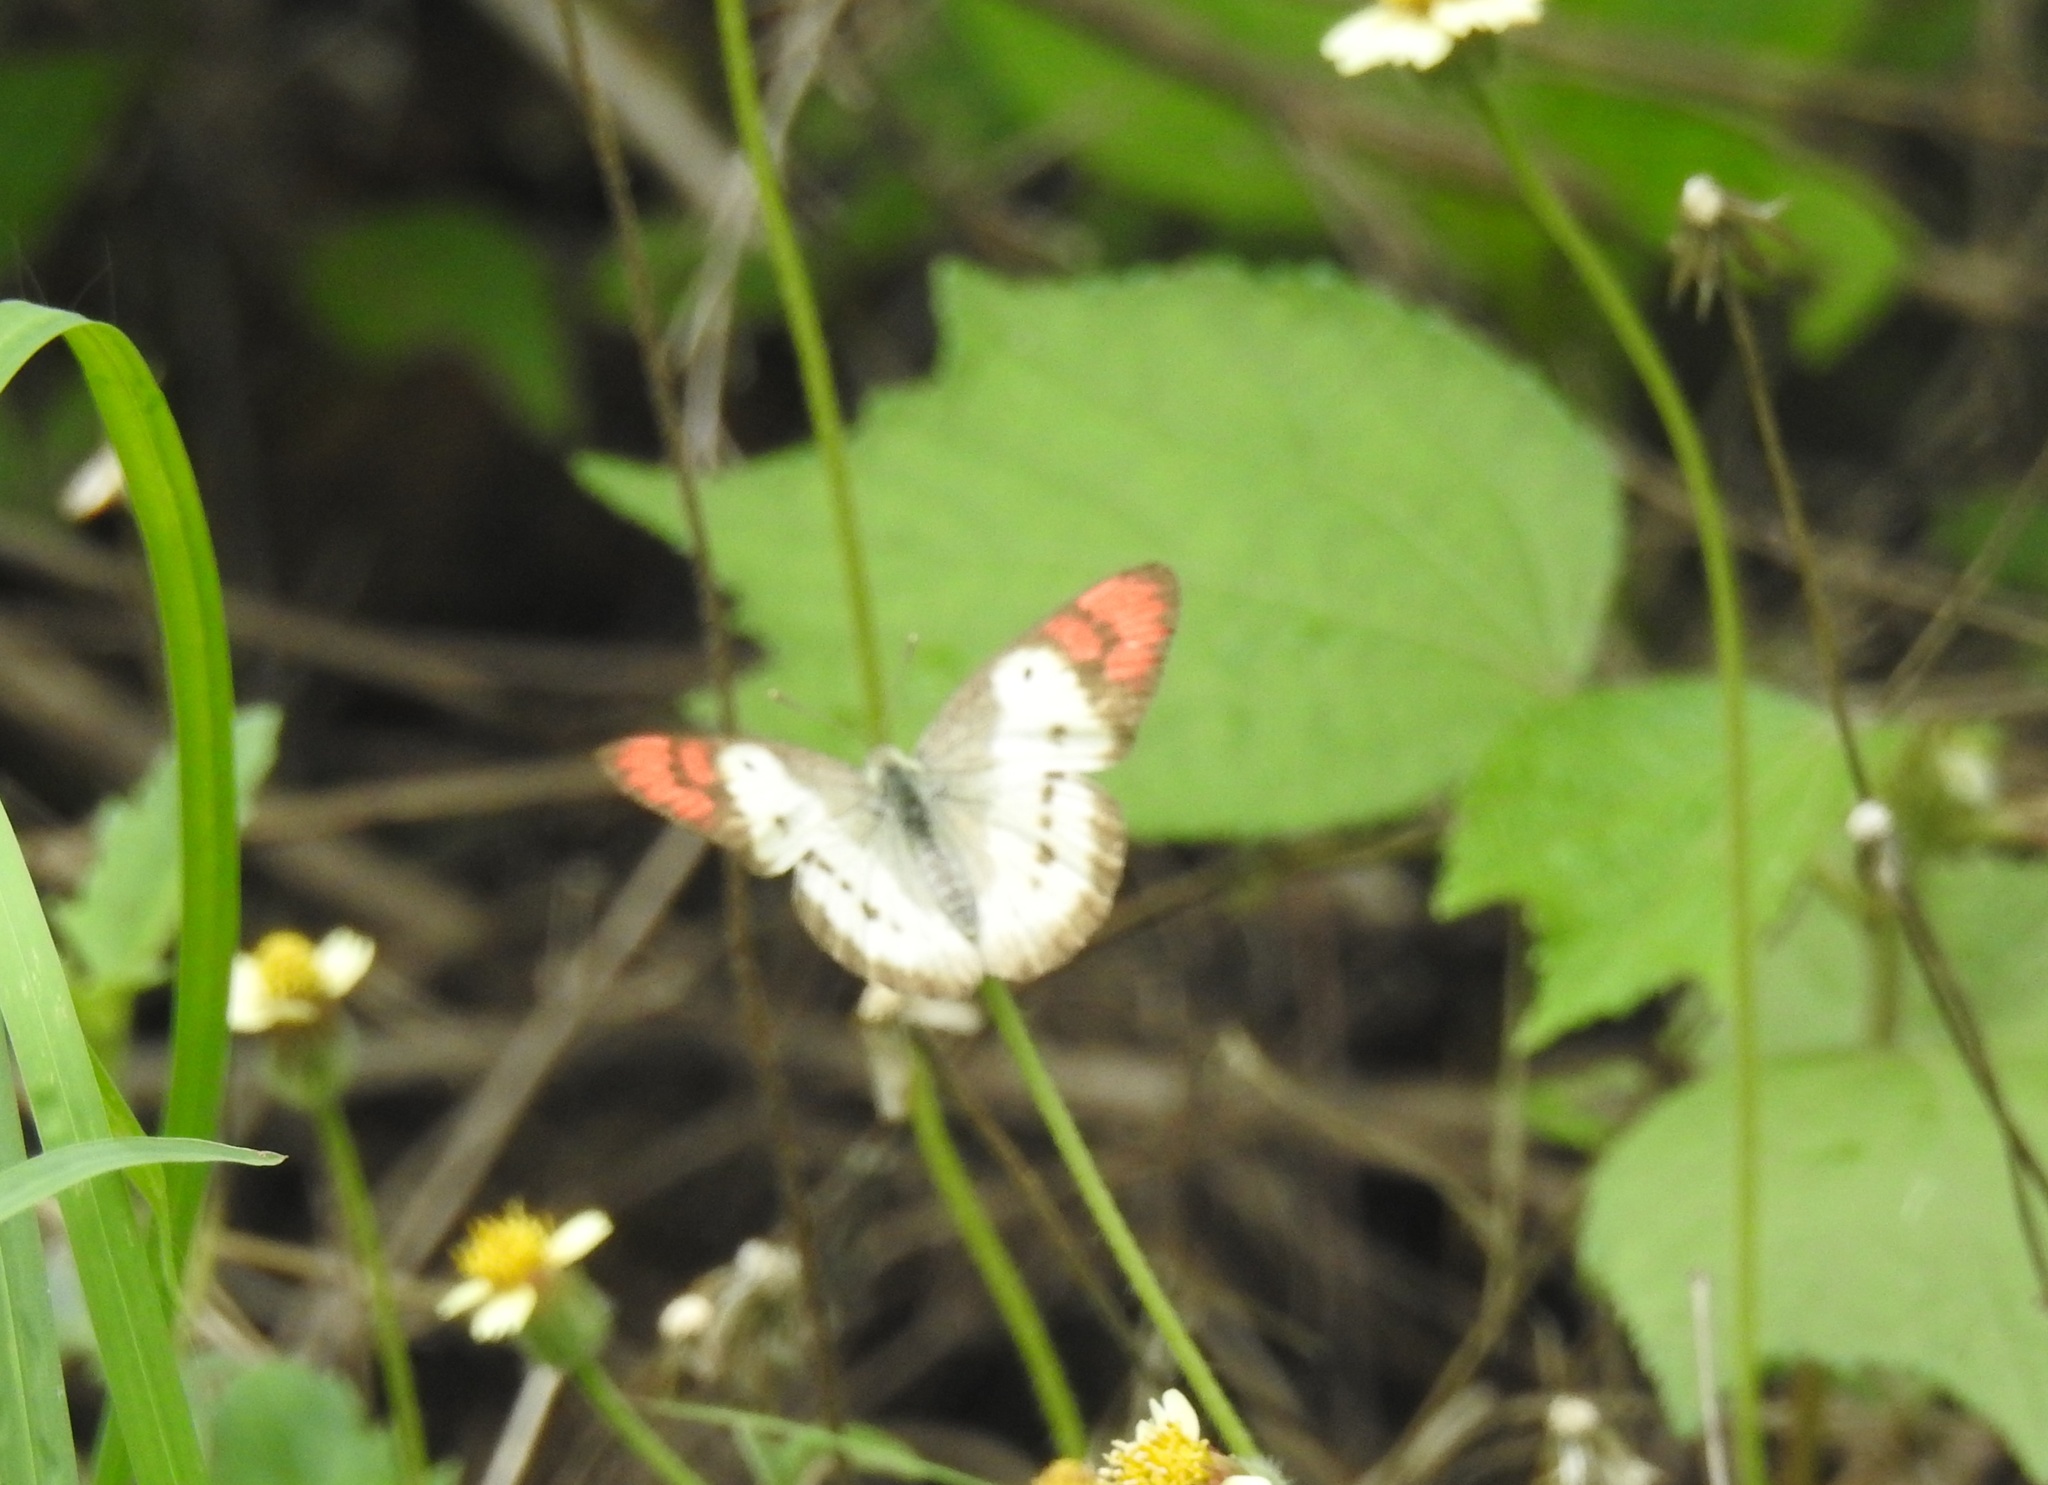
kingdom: Animalia
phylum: Arthropoda
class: Insecta
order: Lepidoptera
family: Pieridae
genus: Colotis
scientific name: Colotis danae
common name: Crimson tip
